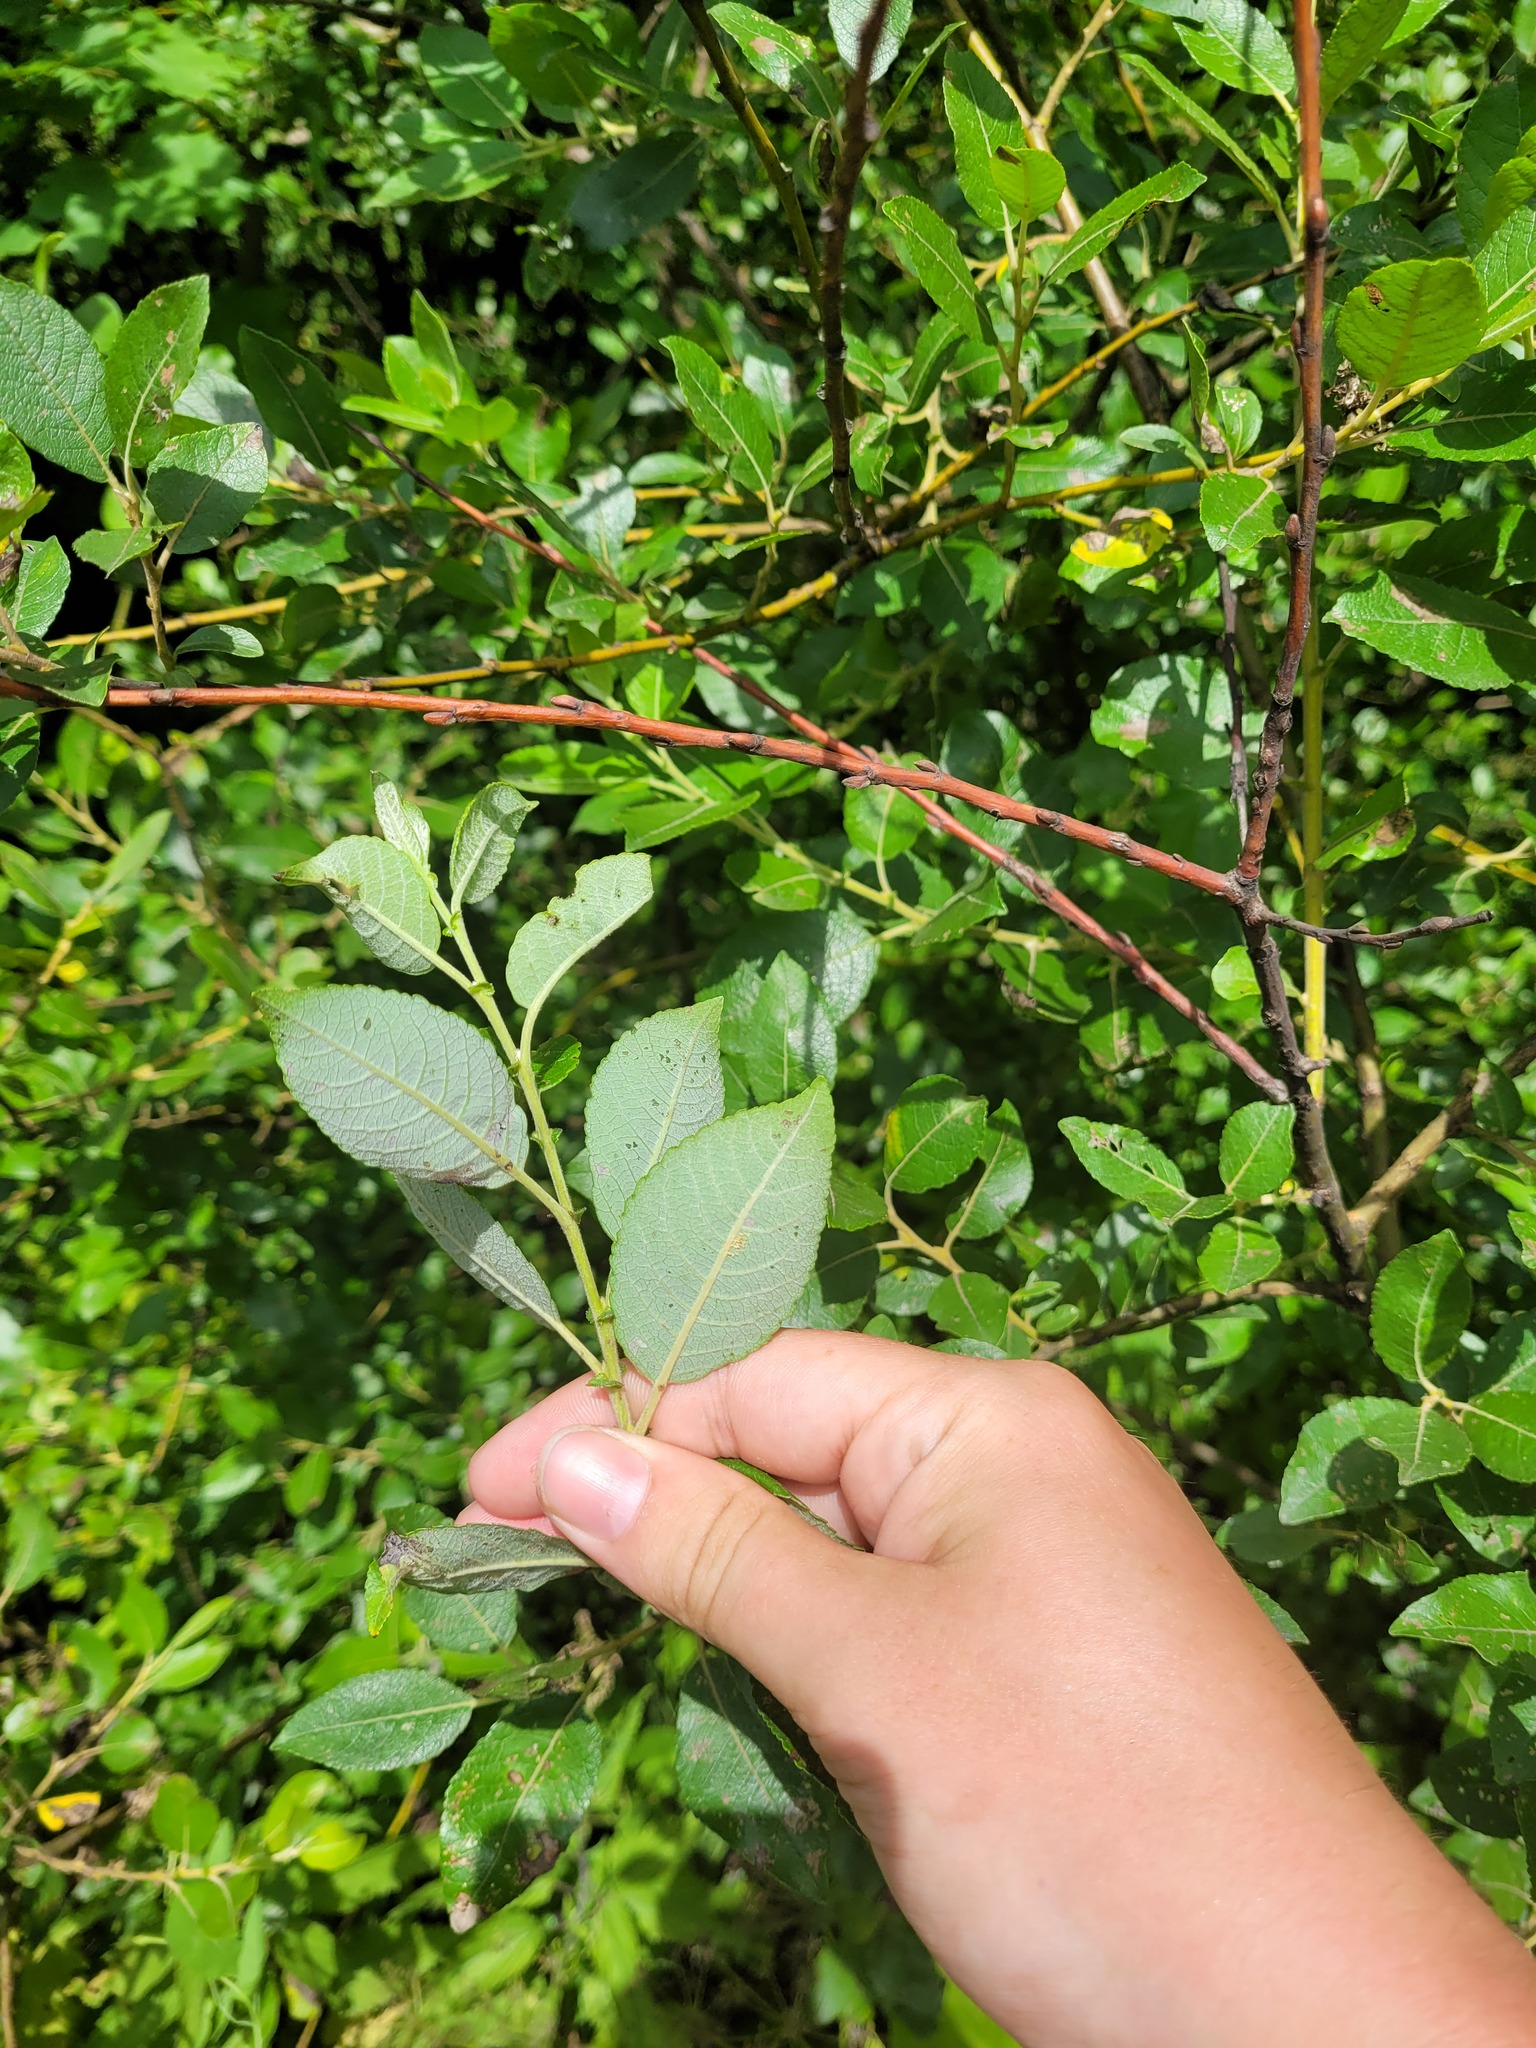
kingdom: Plantae
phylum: Tracheophyta
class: Magnoliopsida
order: Malpighiales
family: Salicaceae
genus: Salix
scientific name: Salix myrsinifolia
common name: Dark-leaved willow
